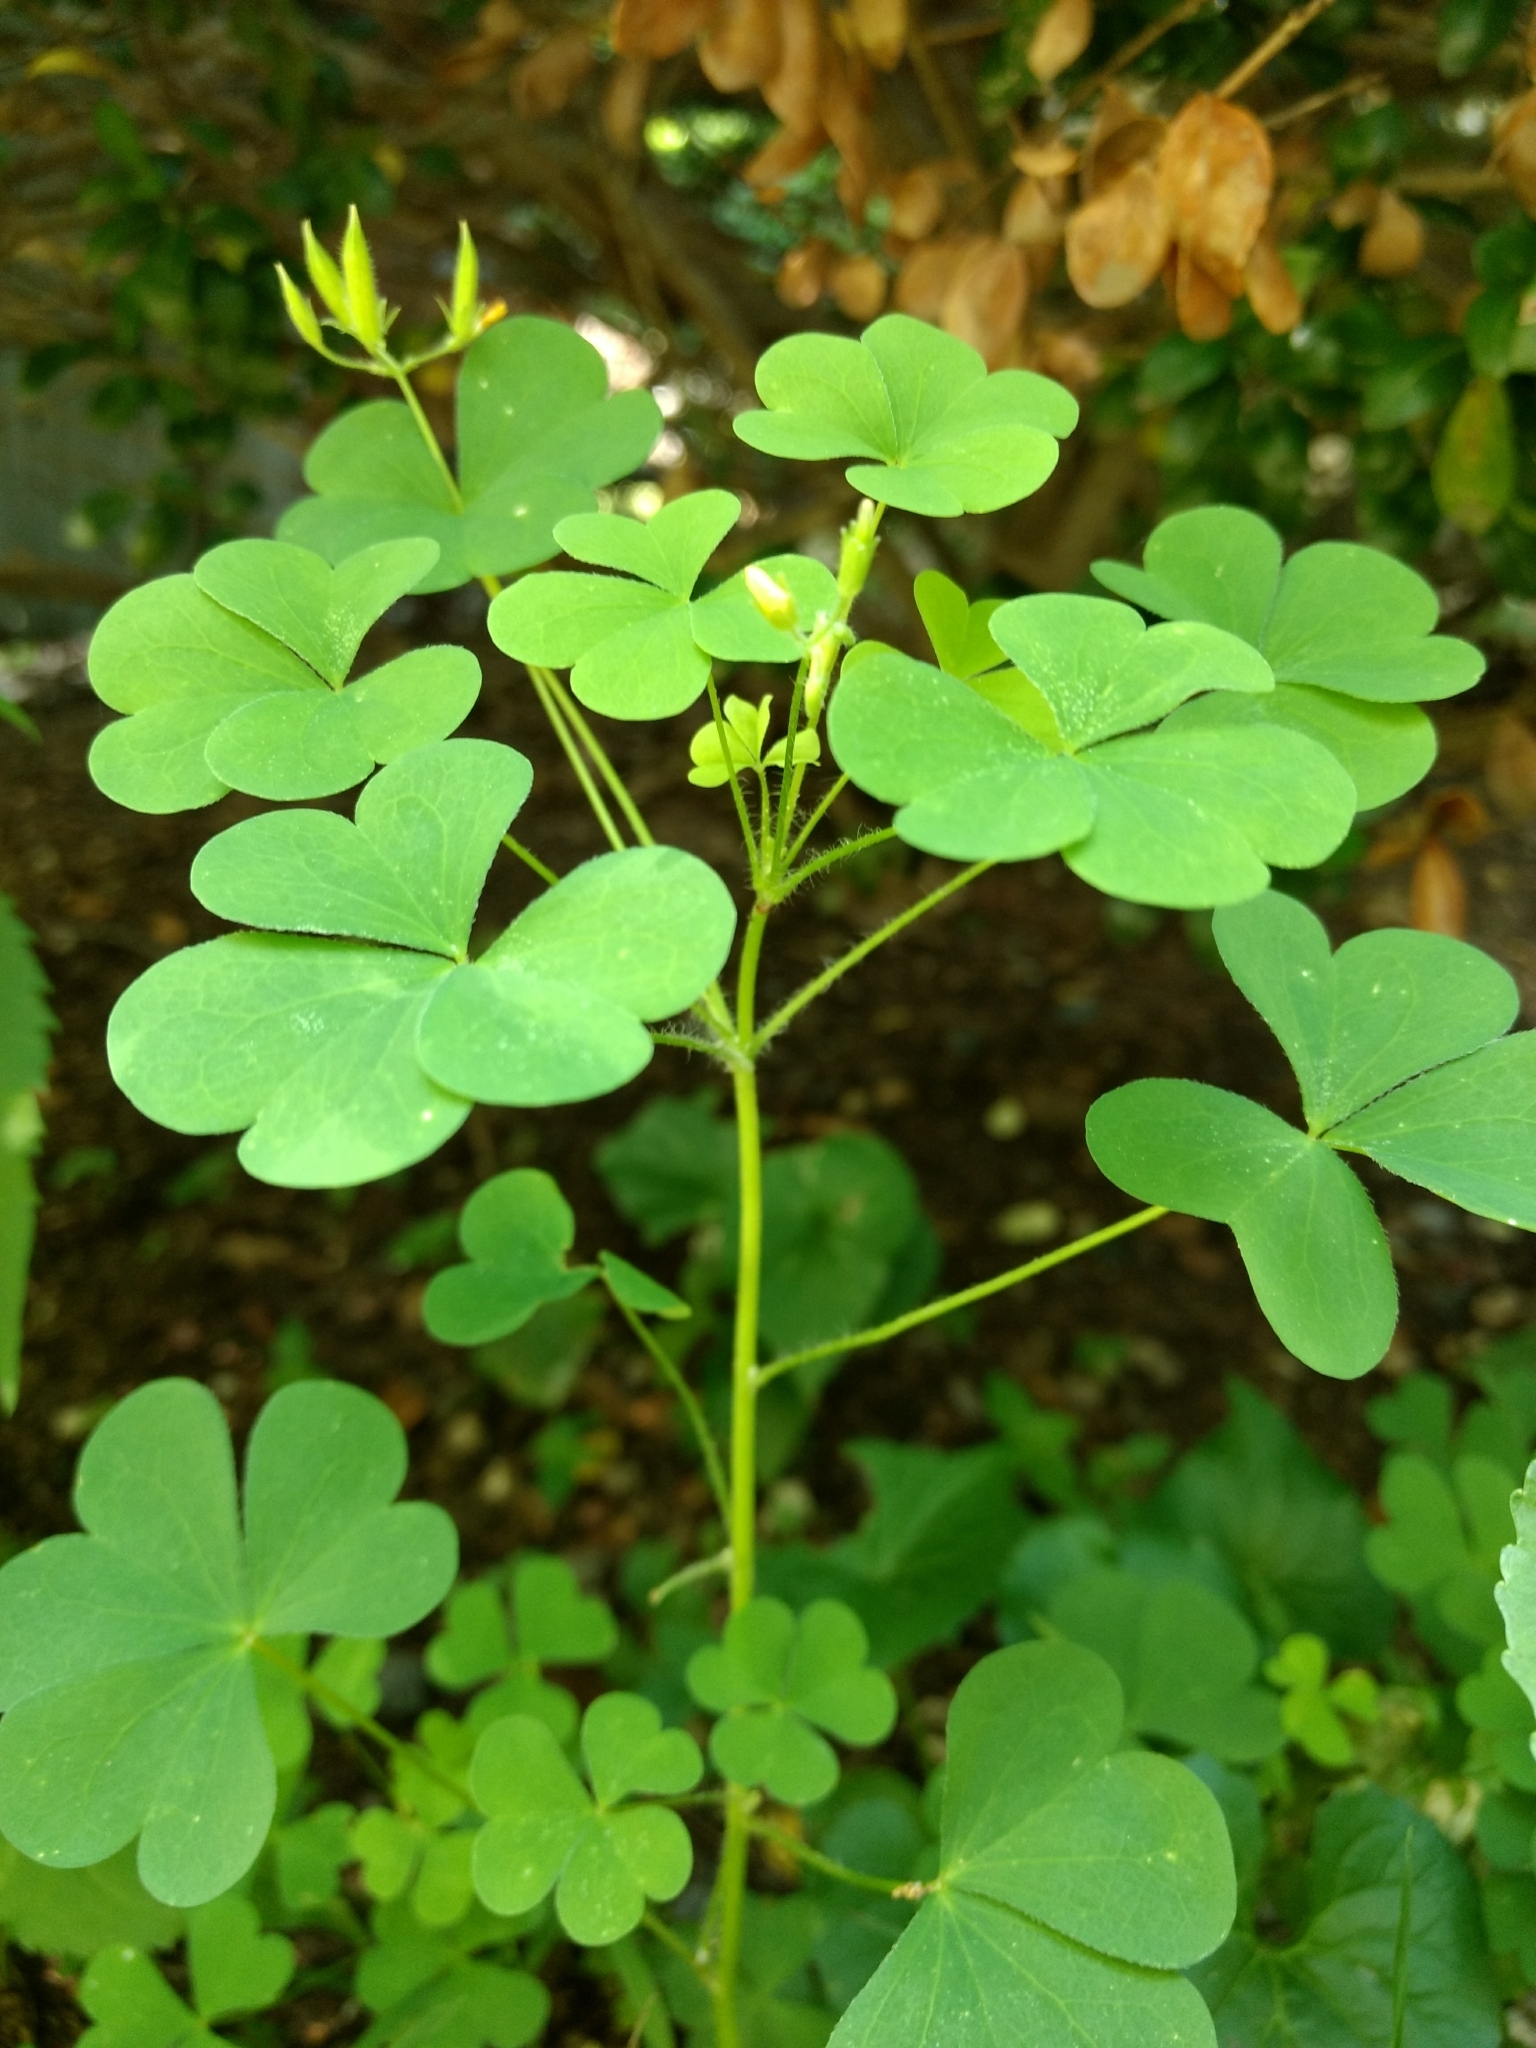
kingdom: Plantae
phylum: Tracheophyta
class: Magnoliopsida
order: Oxalidales
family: Oxalidaceae
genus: Oxalis
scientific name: Oxalis stricta
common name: Upright yellow-sorrel
